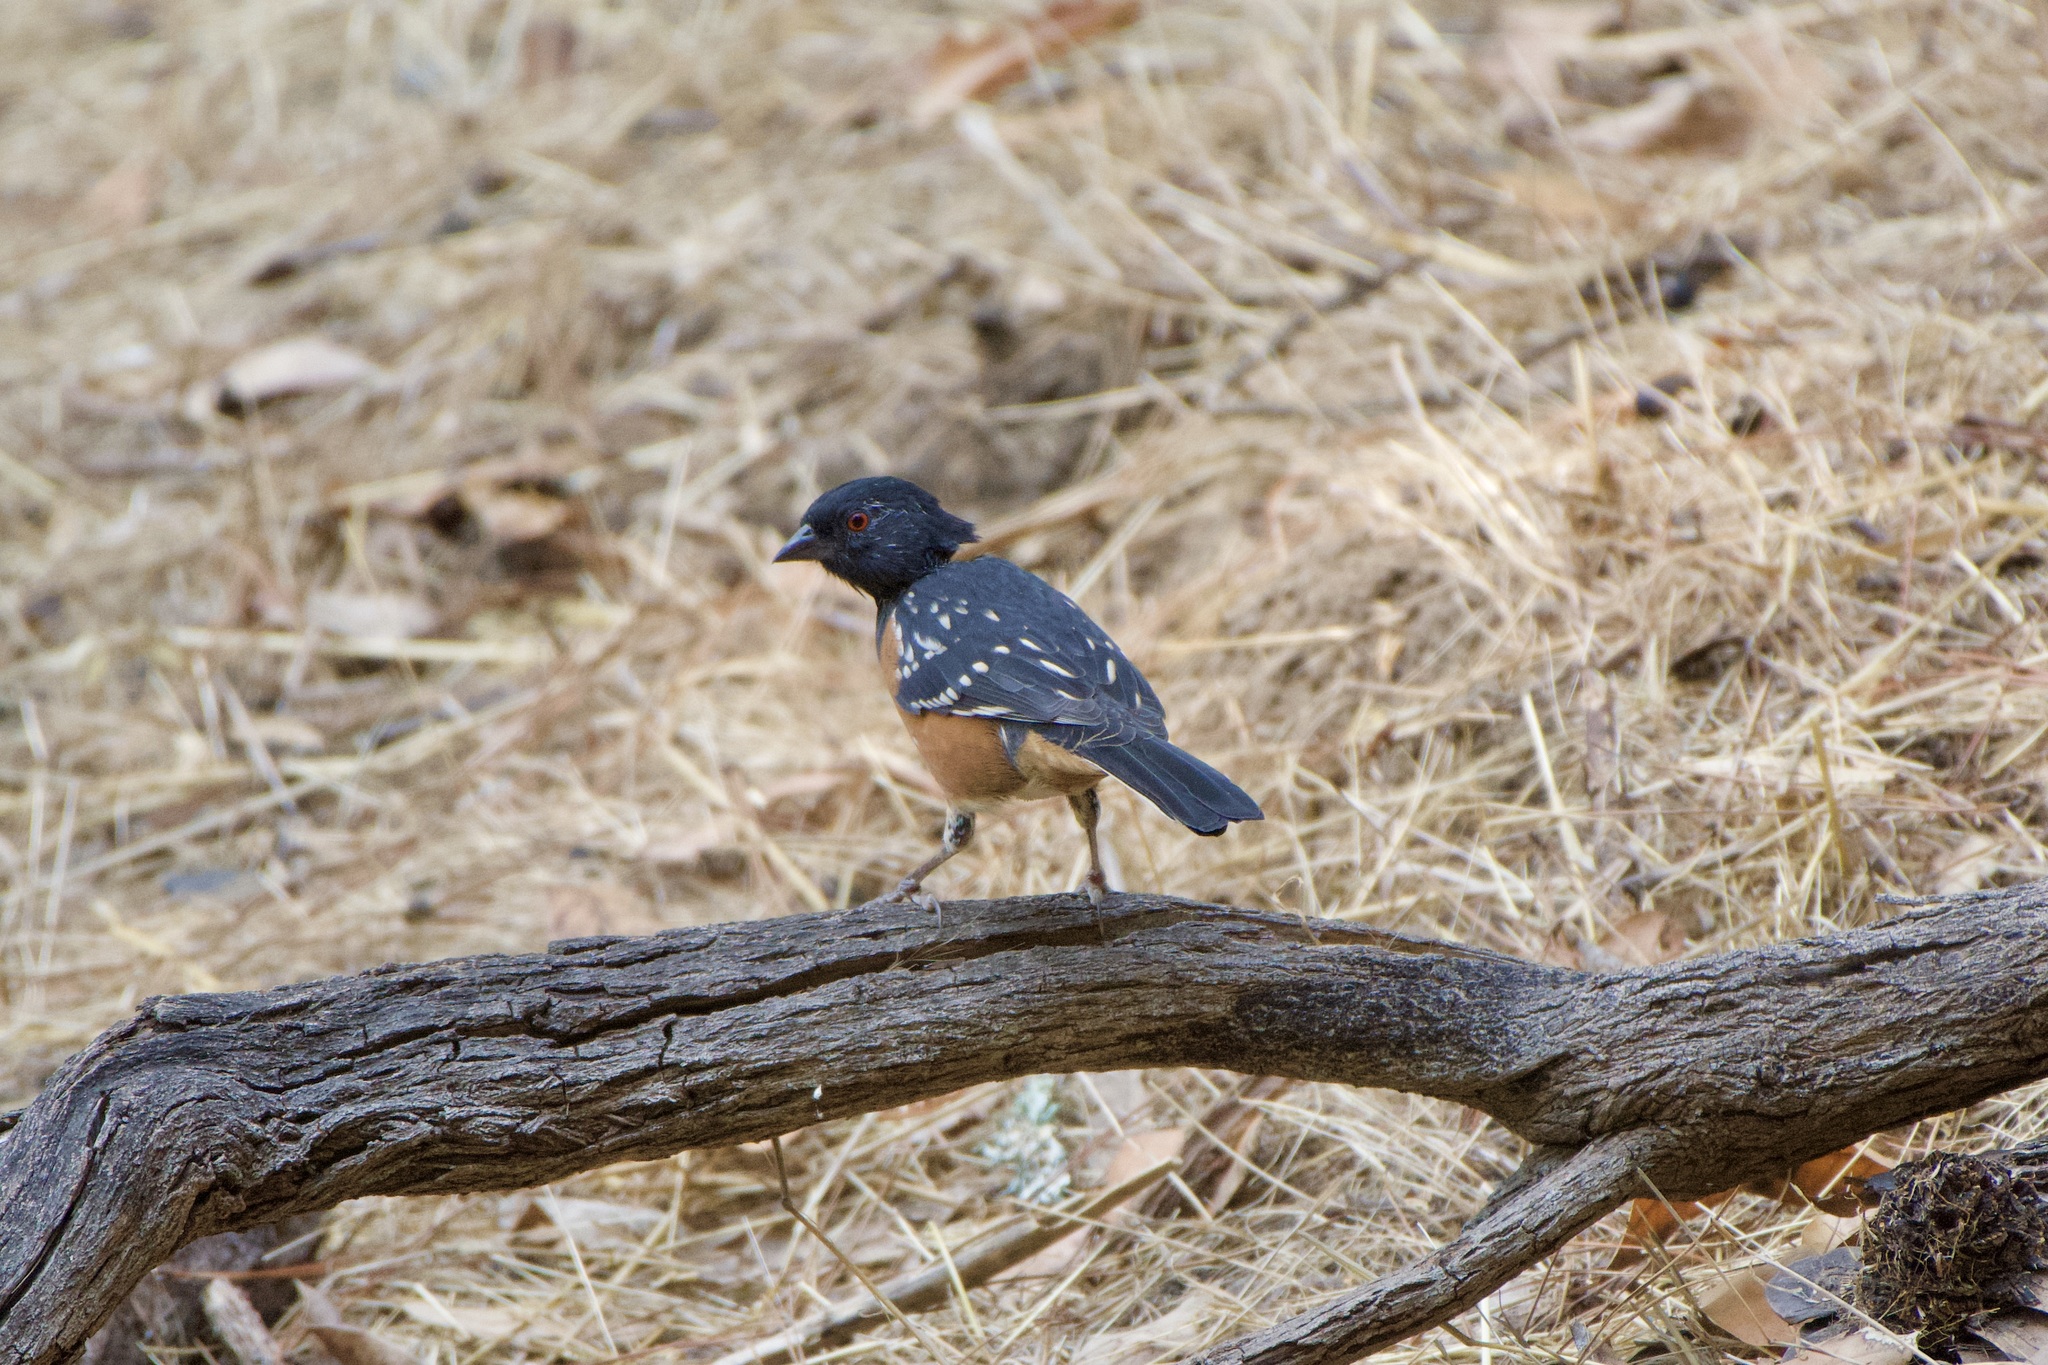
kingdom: Animalia
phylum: Chordata
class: Aves
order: Passeriformes
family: Passerellidae
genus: Pipilo
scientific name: Pipilo maculatus
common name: Spotted towhee
